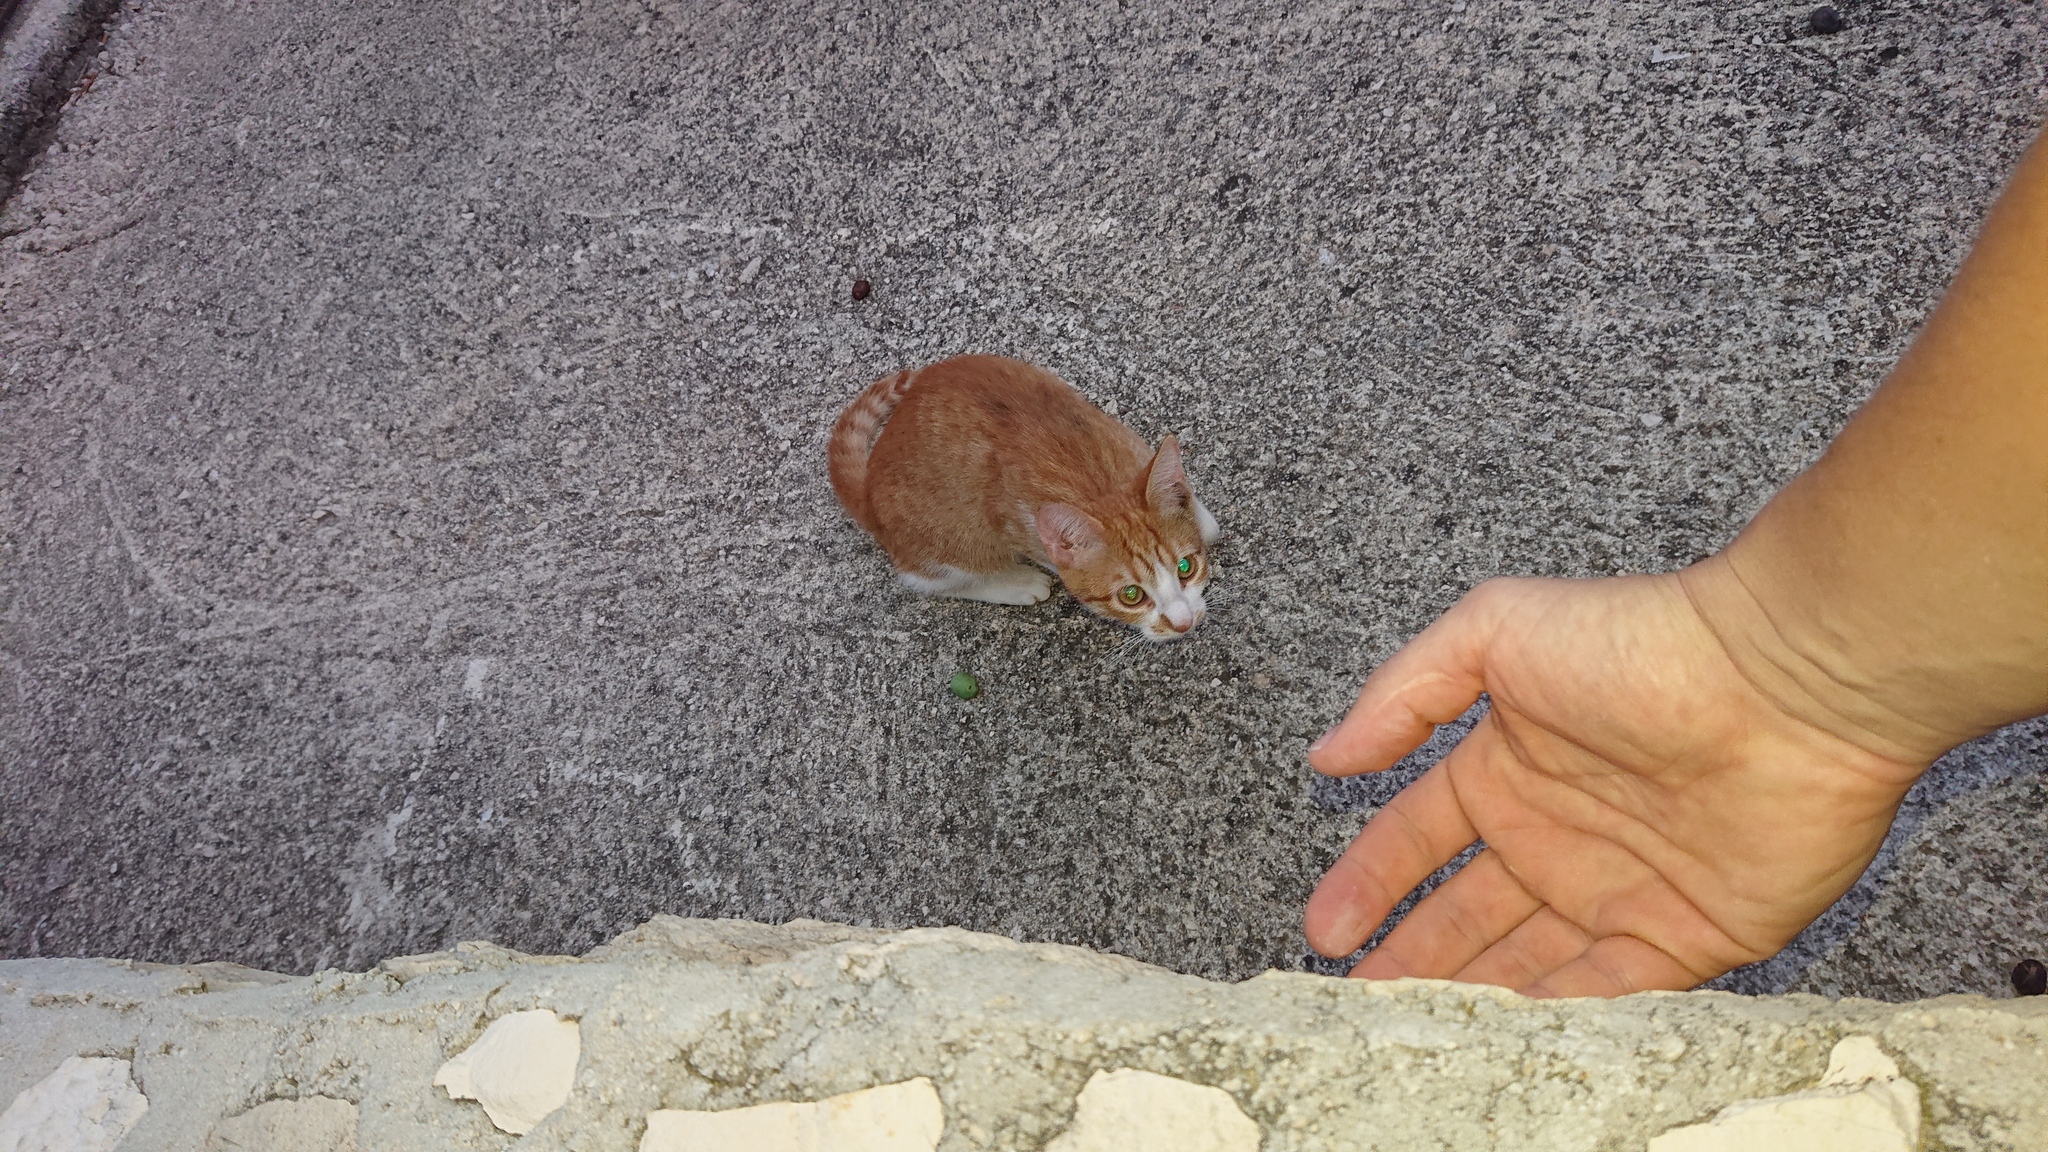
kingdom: Animalia
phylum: Chordata
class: Mammalia
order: Carnivora
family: Felidae
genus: Felis
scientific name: Felis catus
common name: Domestic cat
